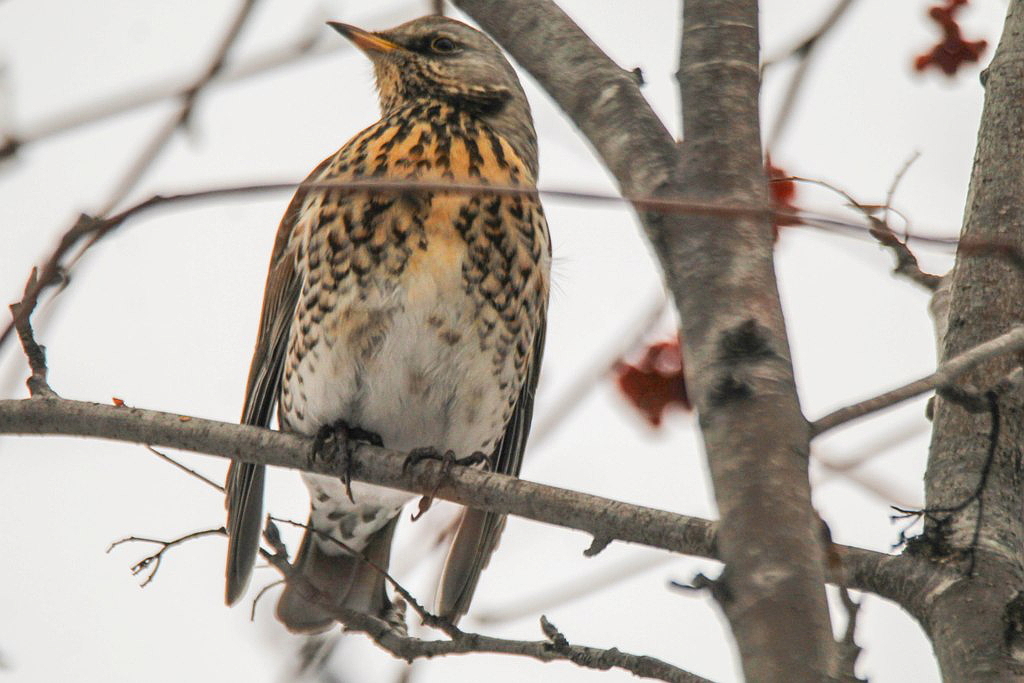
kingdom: Animalia
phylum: Chordata
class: Aves
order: Passeriformes
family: Turdidae
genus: Turdus
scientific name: Turdus pilaris
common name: Fieldfare
